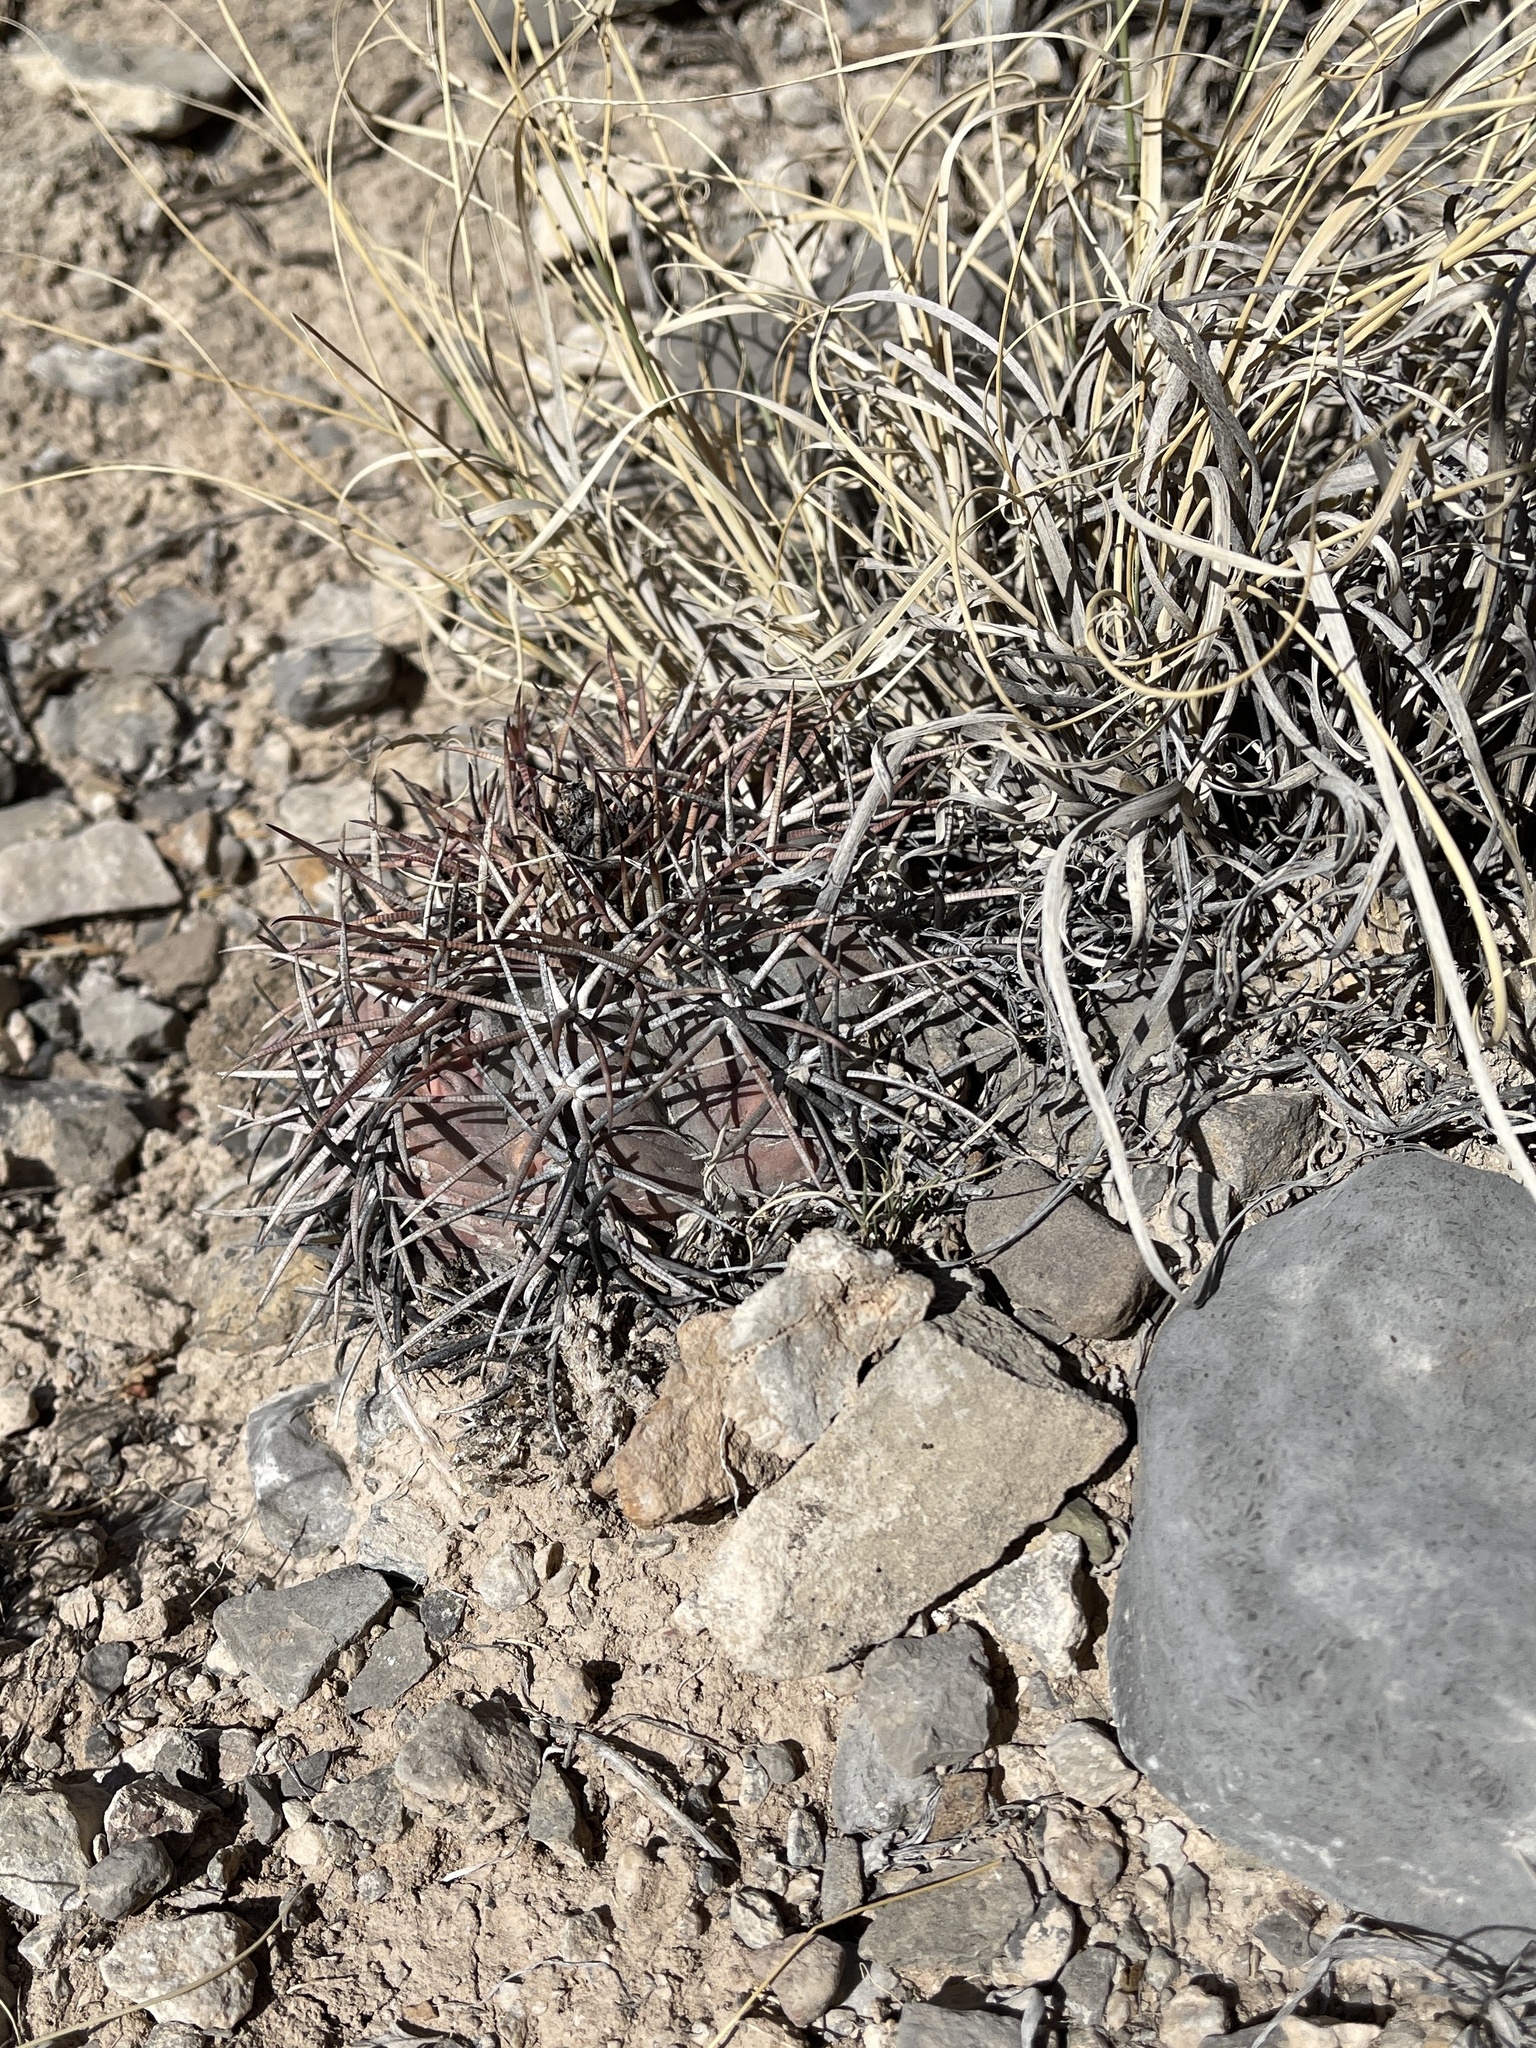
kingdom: Plantae
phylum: Tracheophyta
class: Magnoliopsida
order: Caryophyllales
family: Cactaceae
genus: Echinocactus
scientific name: Echinocactus horizonthalonius
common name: Devilshead
